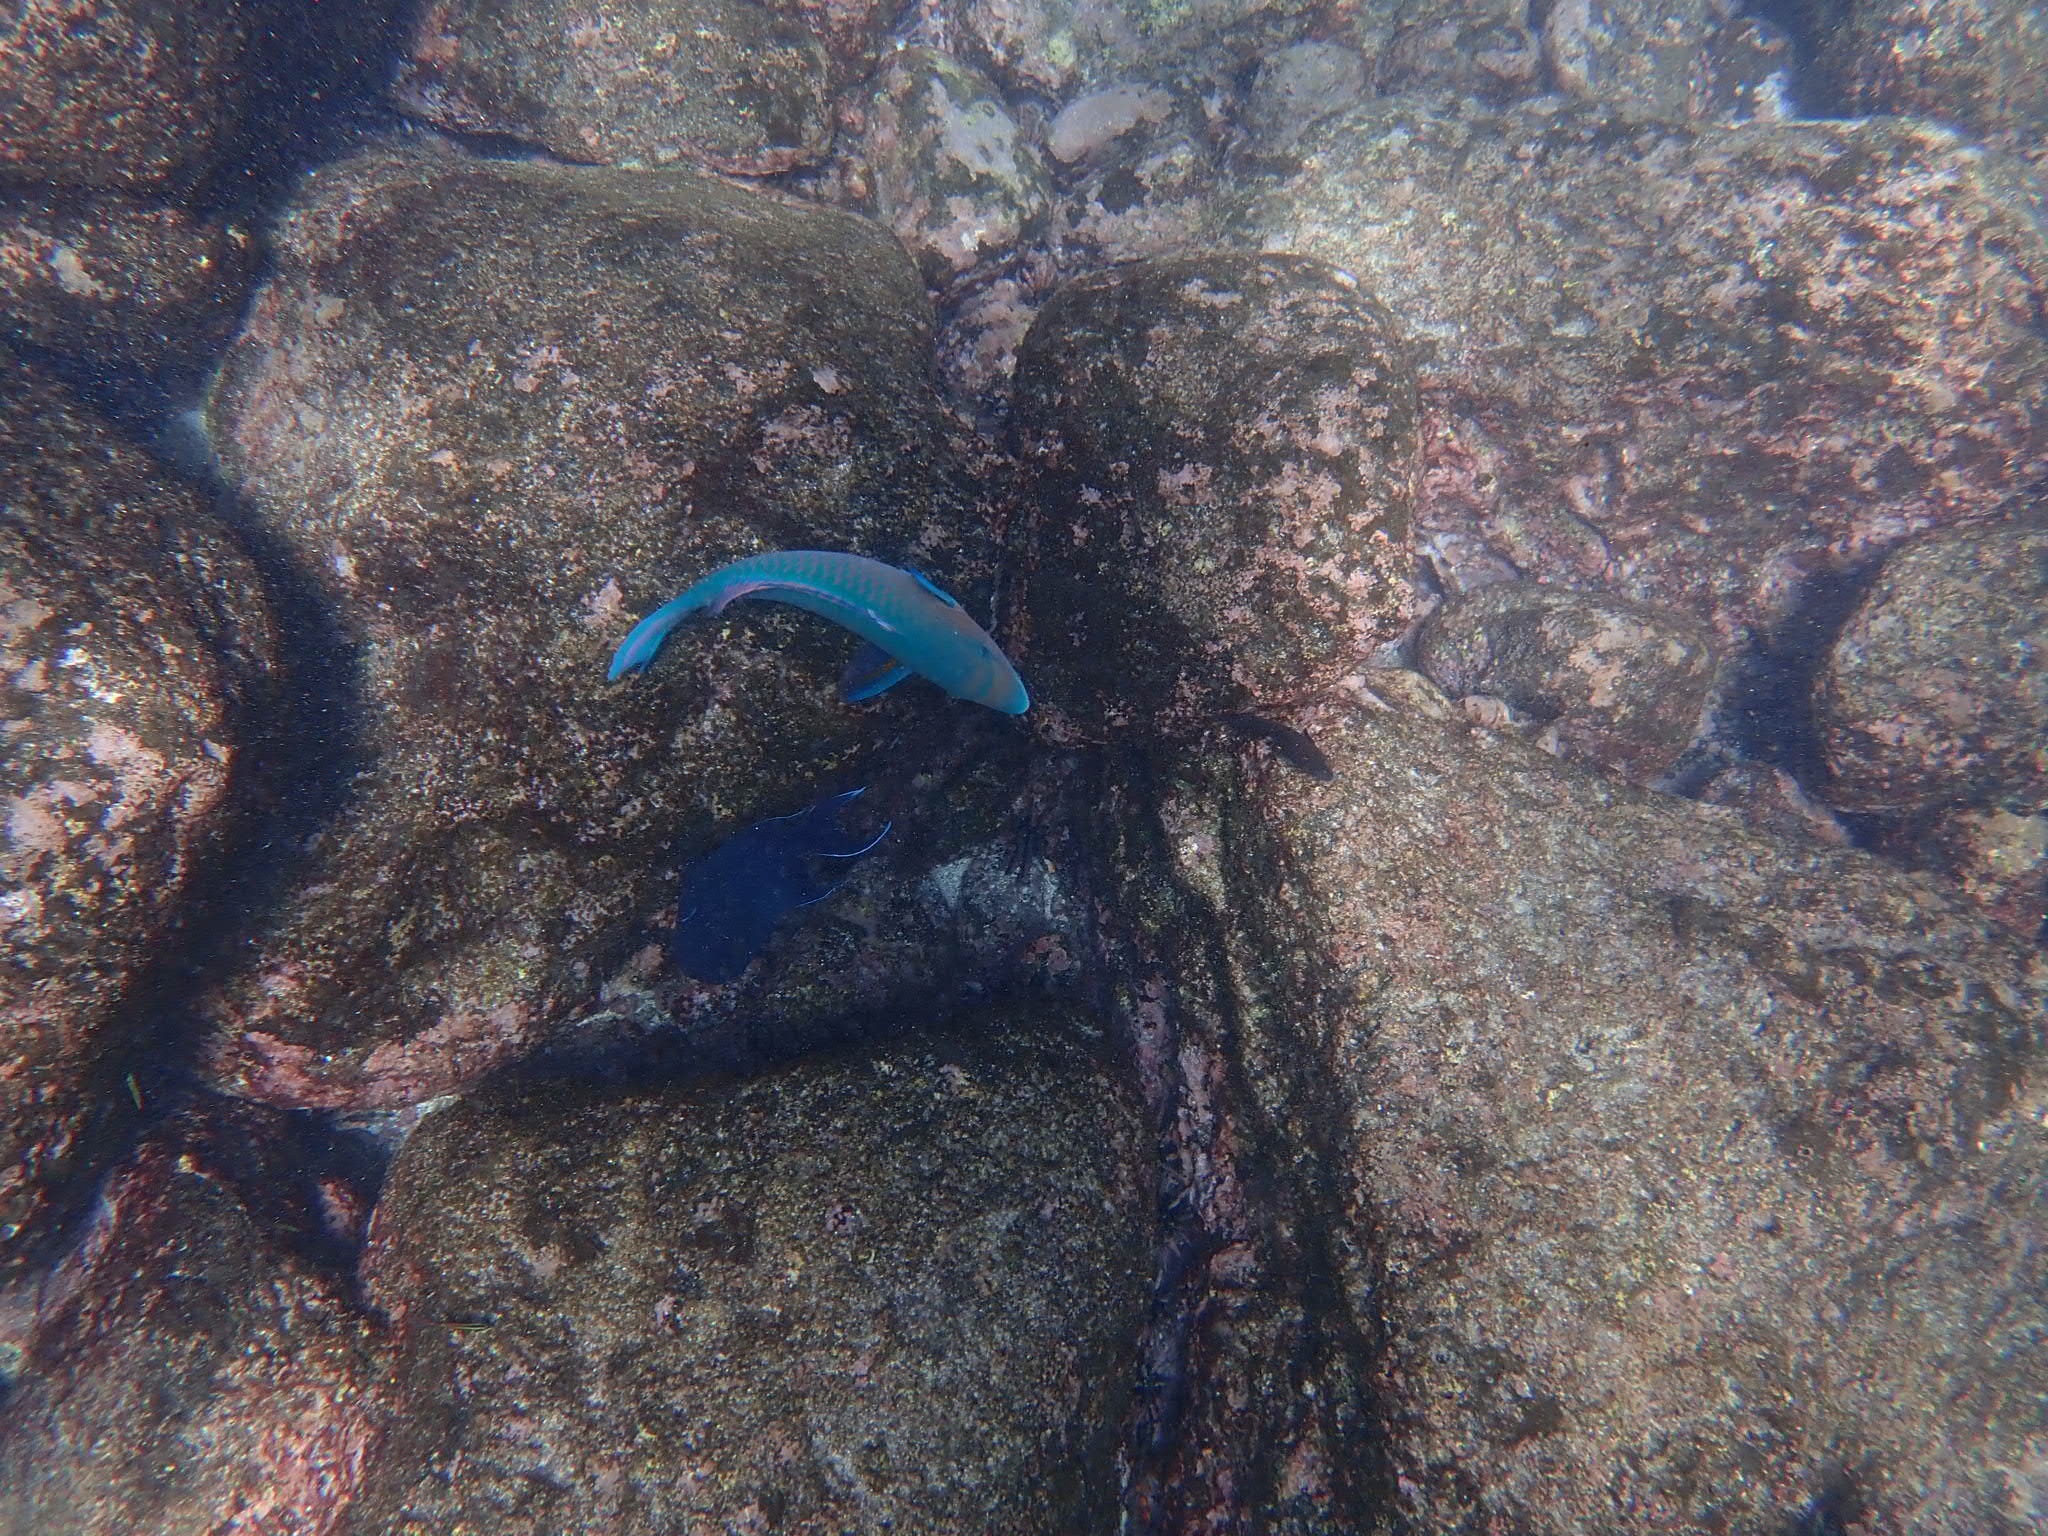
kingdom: Animalia
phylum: Chordata
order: Perciformes
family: Scaridae
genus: Scarus
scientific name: Scarus ghobban
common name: Blue-barred parrotfish
